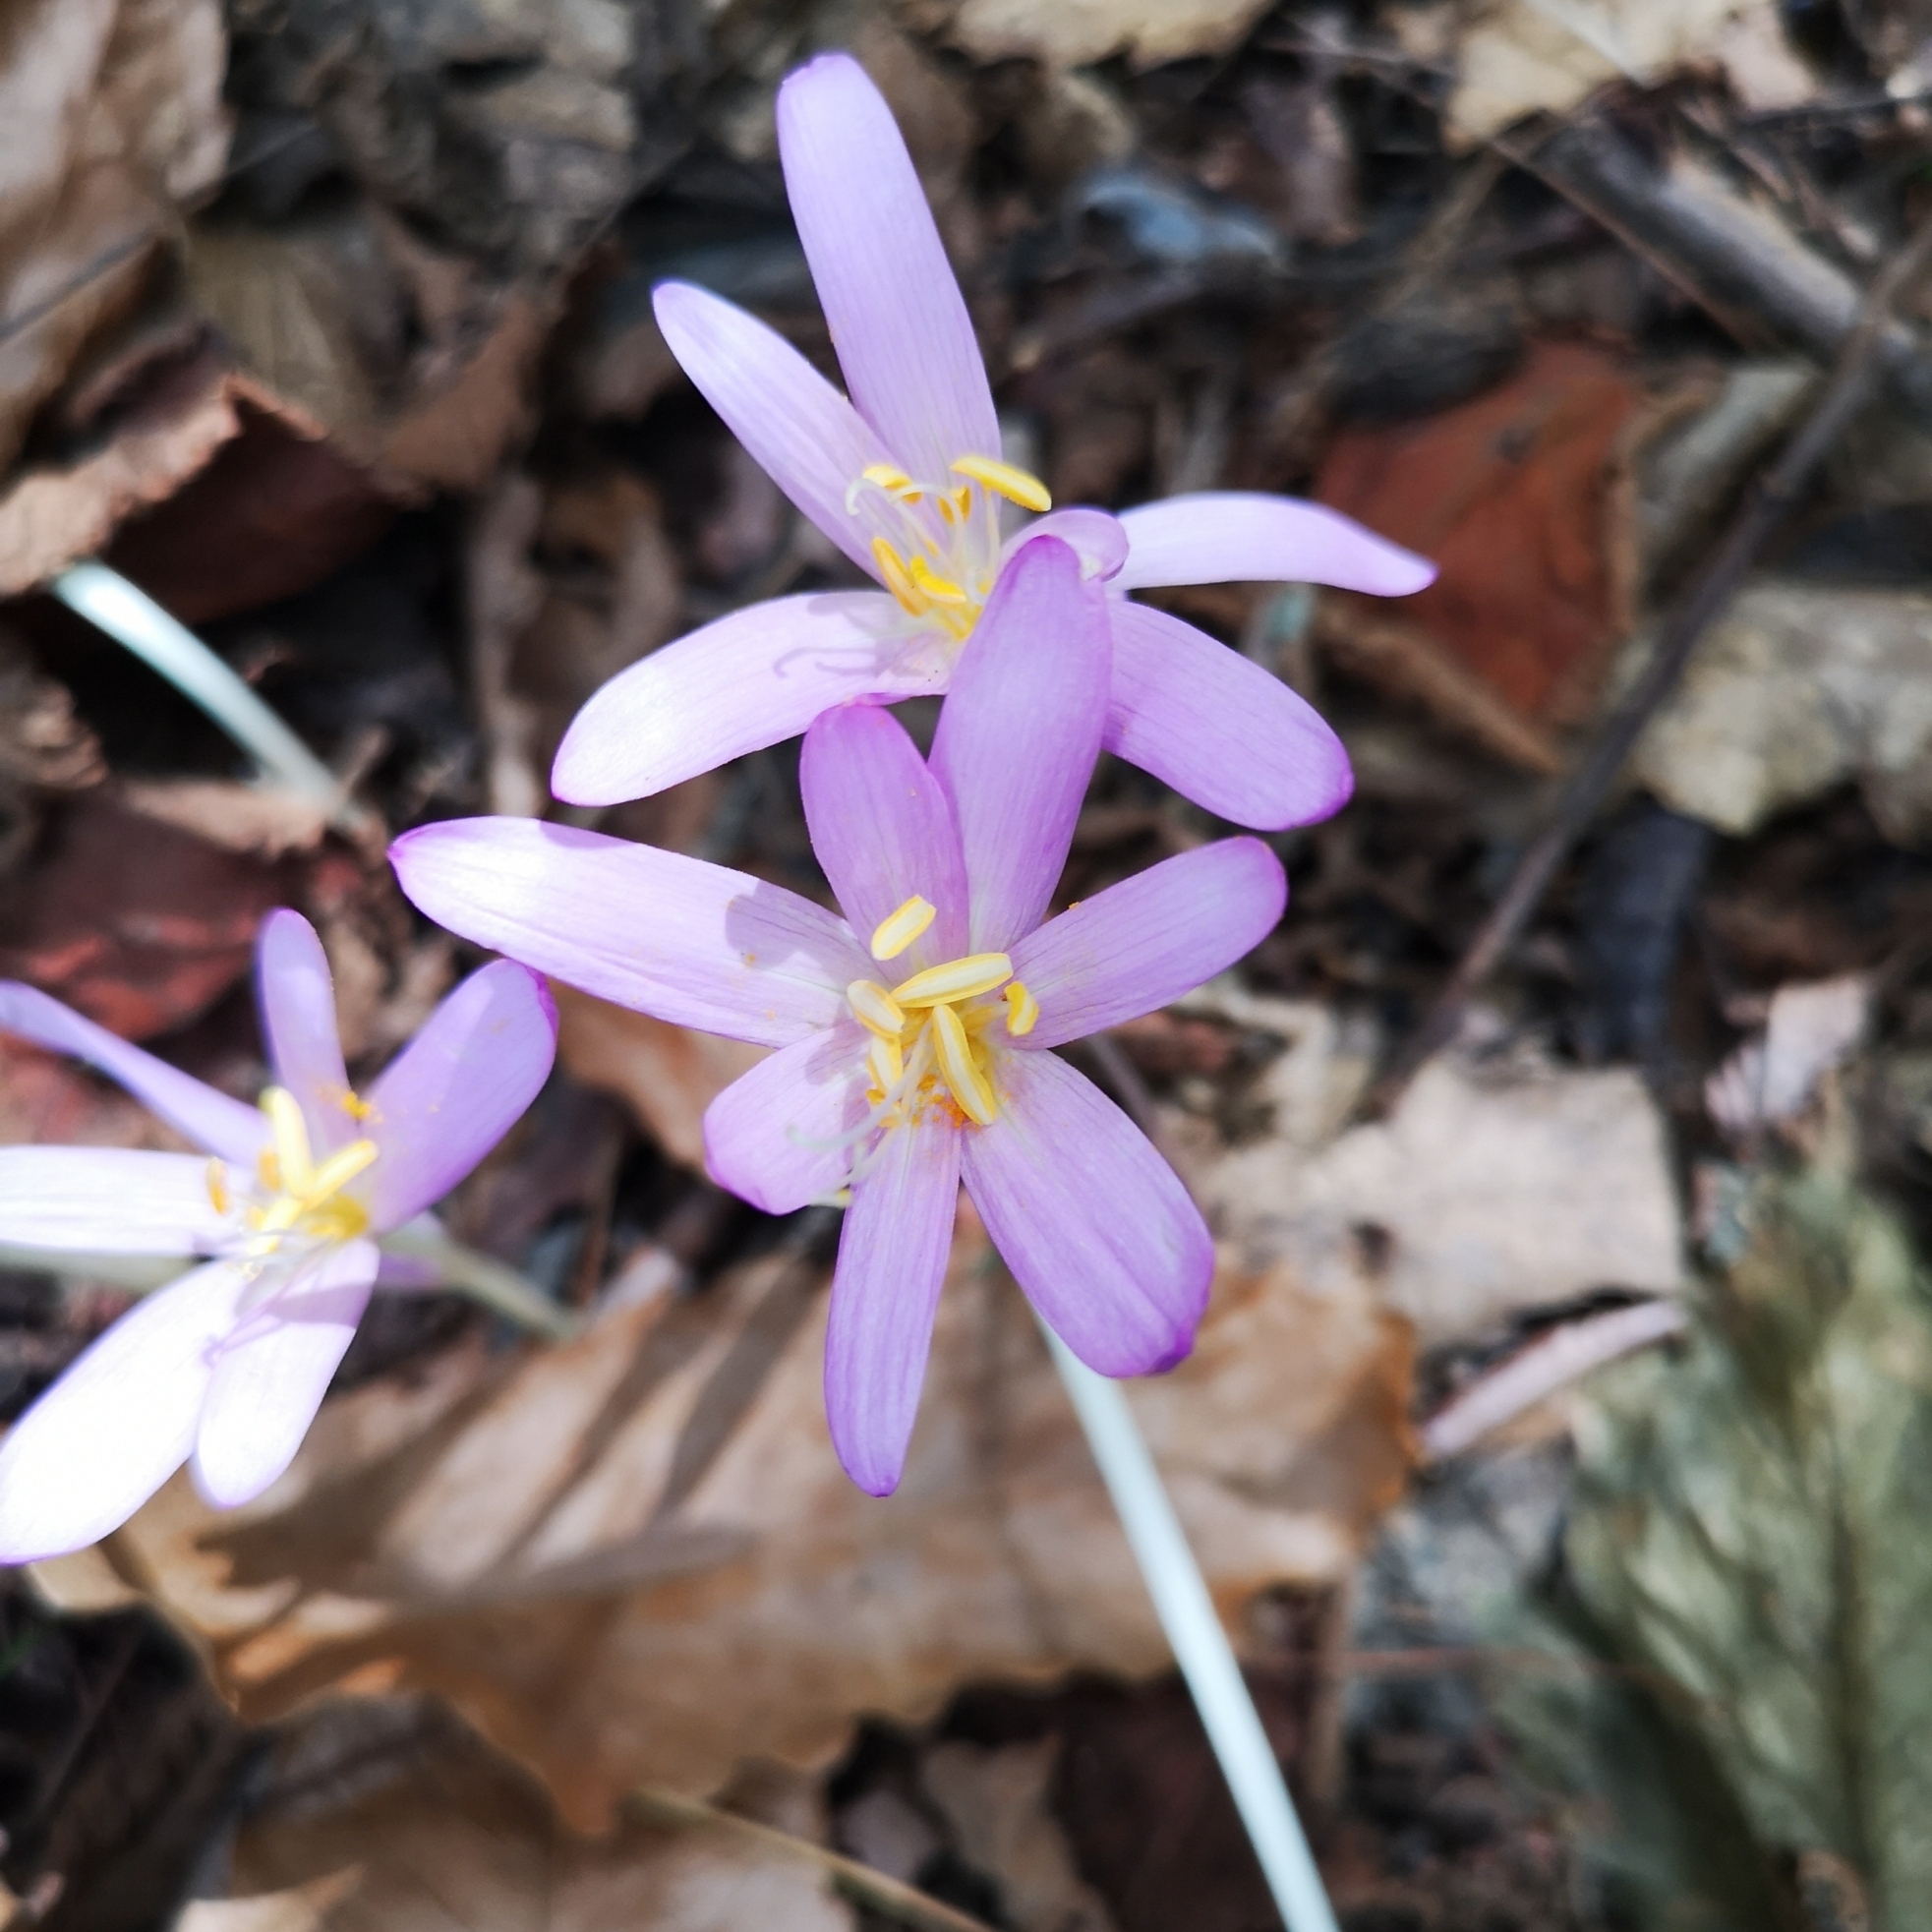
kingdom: Plantae
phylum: Tracheophyta
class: Liliopsida
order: Liliales
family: Colchicaceae
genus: Colchicum
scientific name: Colchicum autumnale
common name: Autumn crocus
